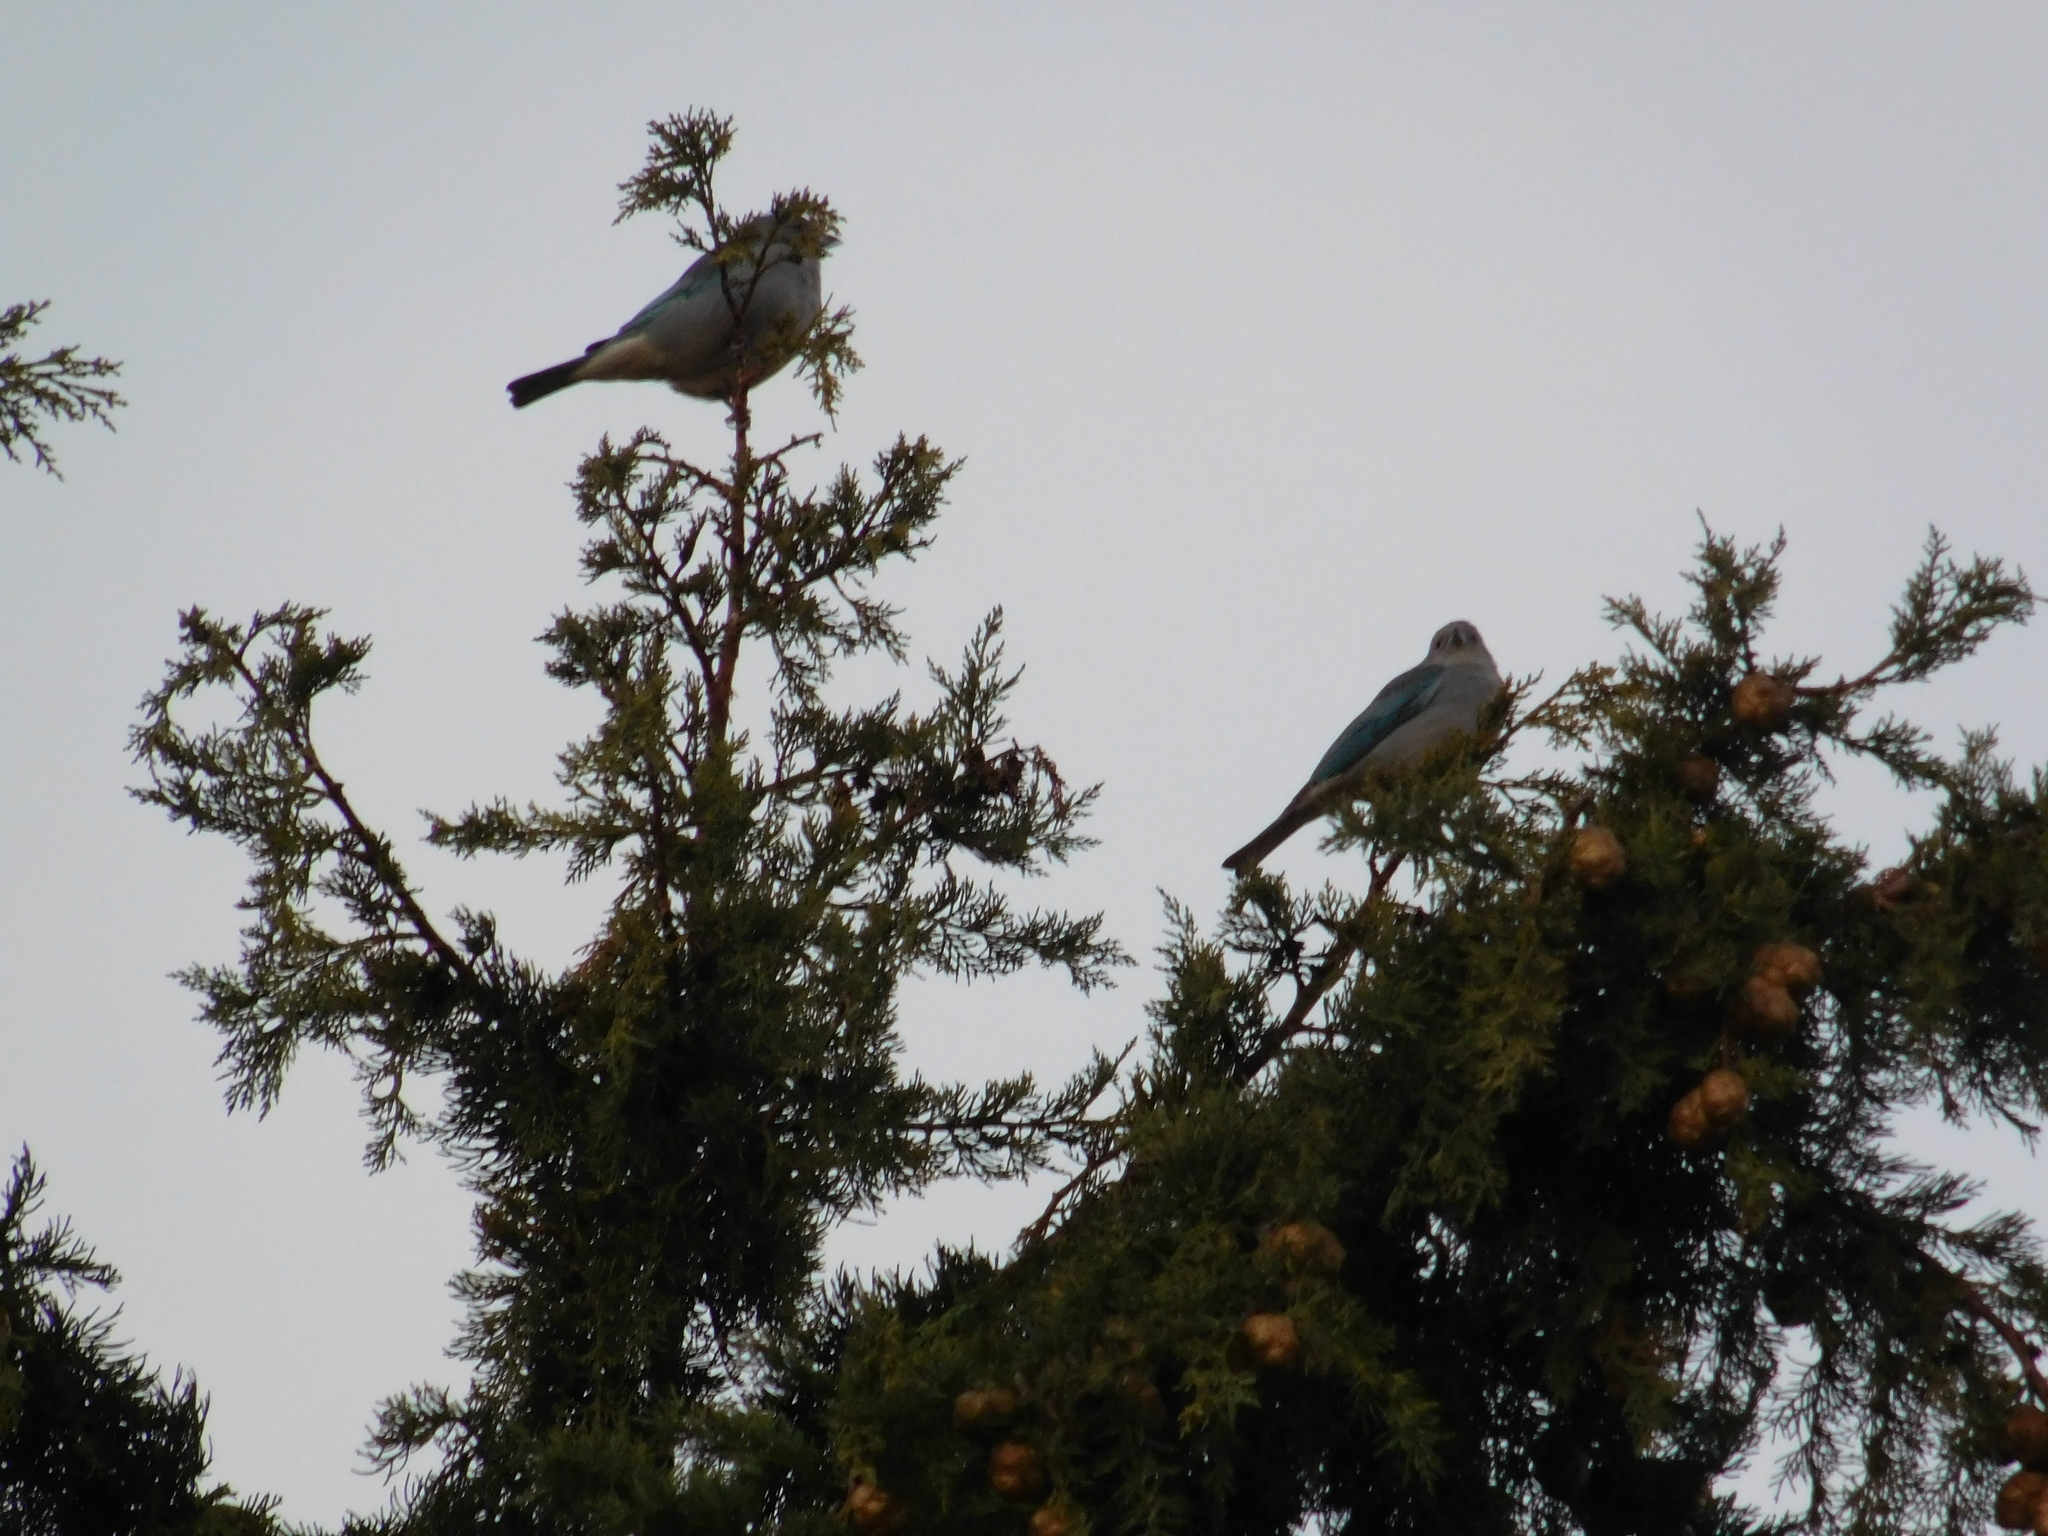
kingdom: Animalia
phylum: Chordata
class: Aves
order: Passeriformes
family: Thraupidae
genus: Thraupis
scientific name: Thraupis sayaca
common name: Sayaca tanager
